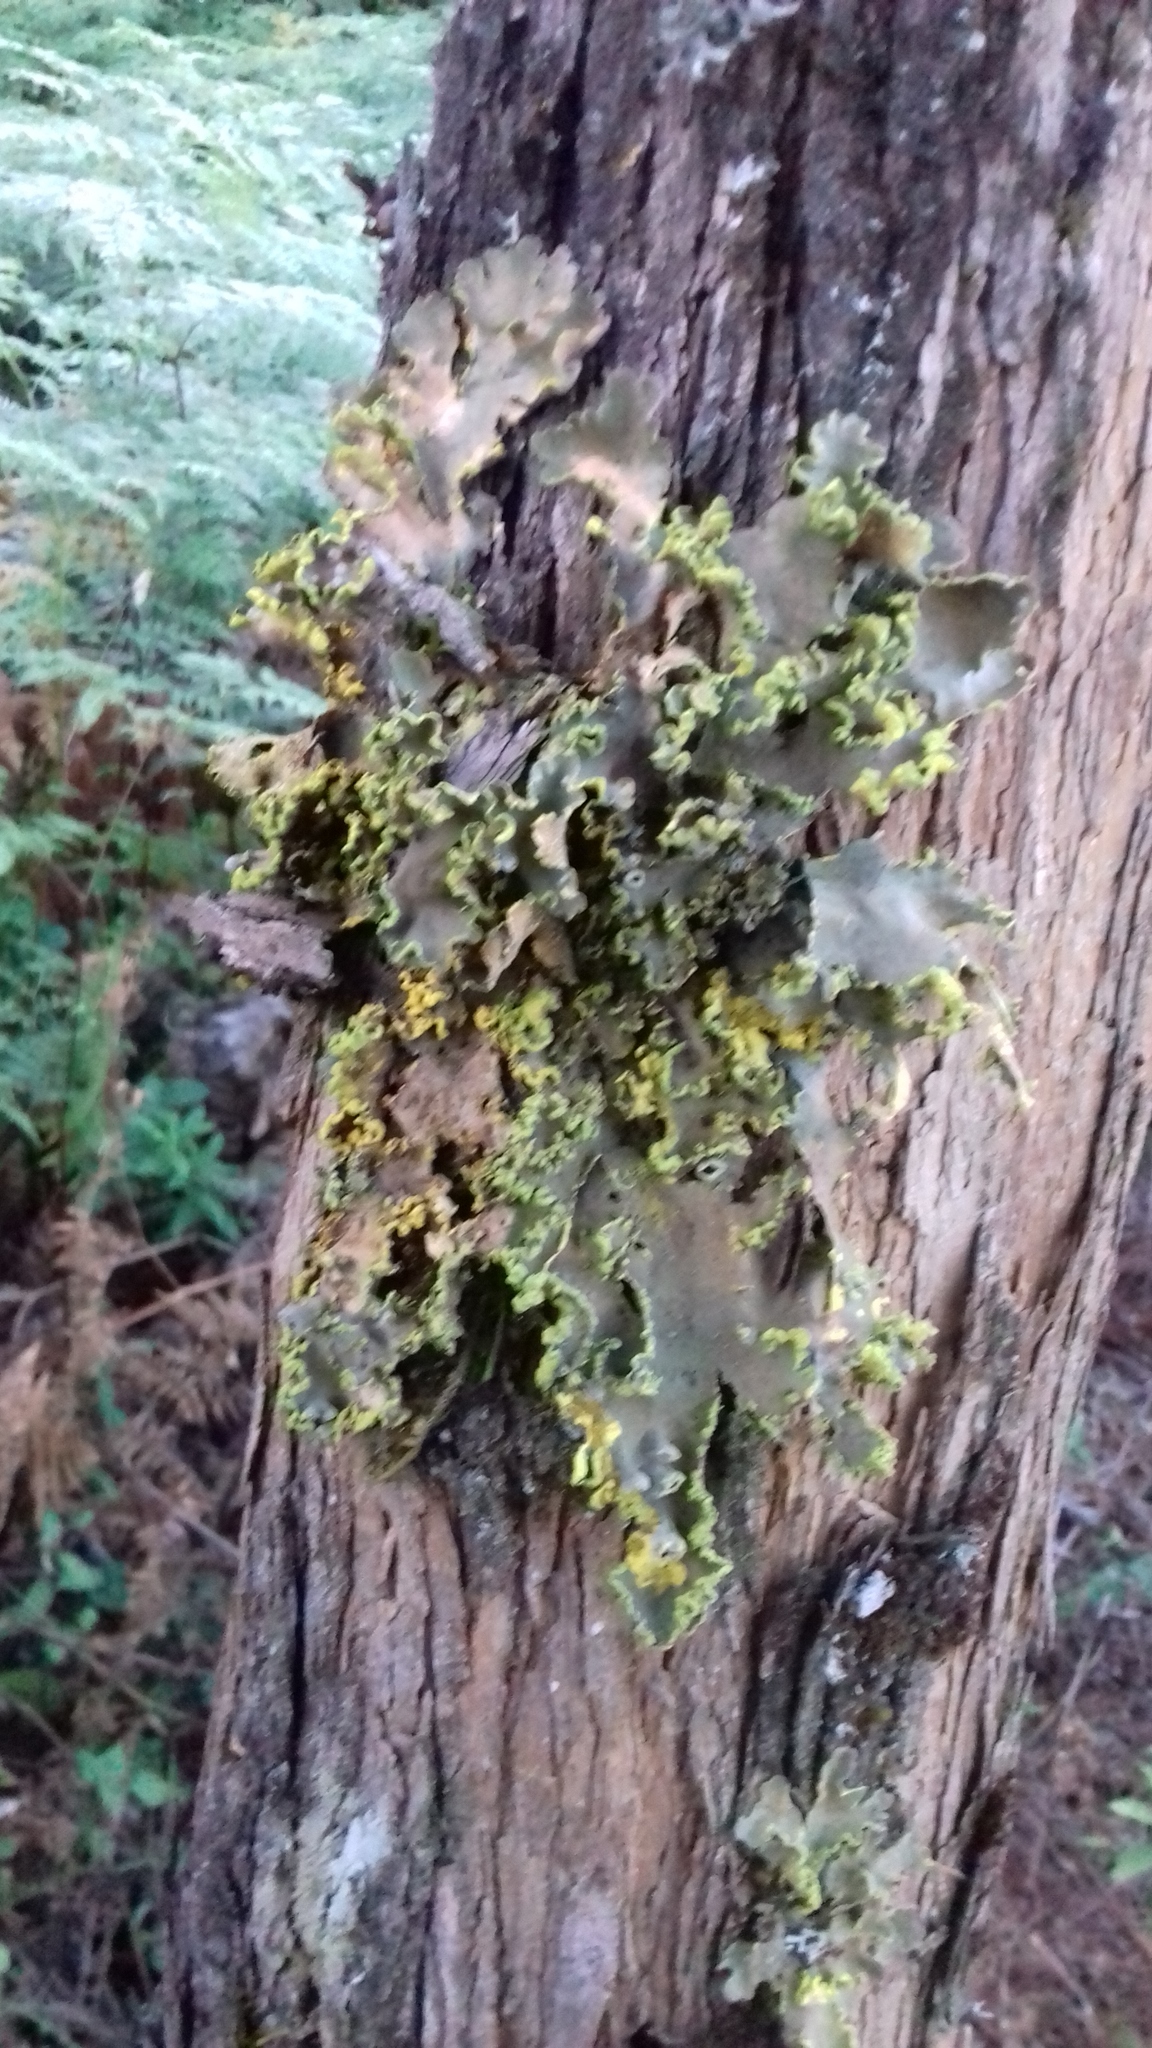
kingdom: Fungi
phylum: Ascomycota
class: Lecanoromycetes
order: Peltigerales
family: Lobariaceae
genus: Pseudocyphellaria
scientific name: Pseudocyphellaria aurata
